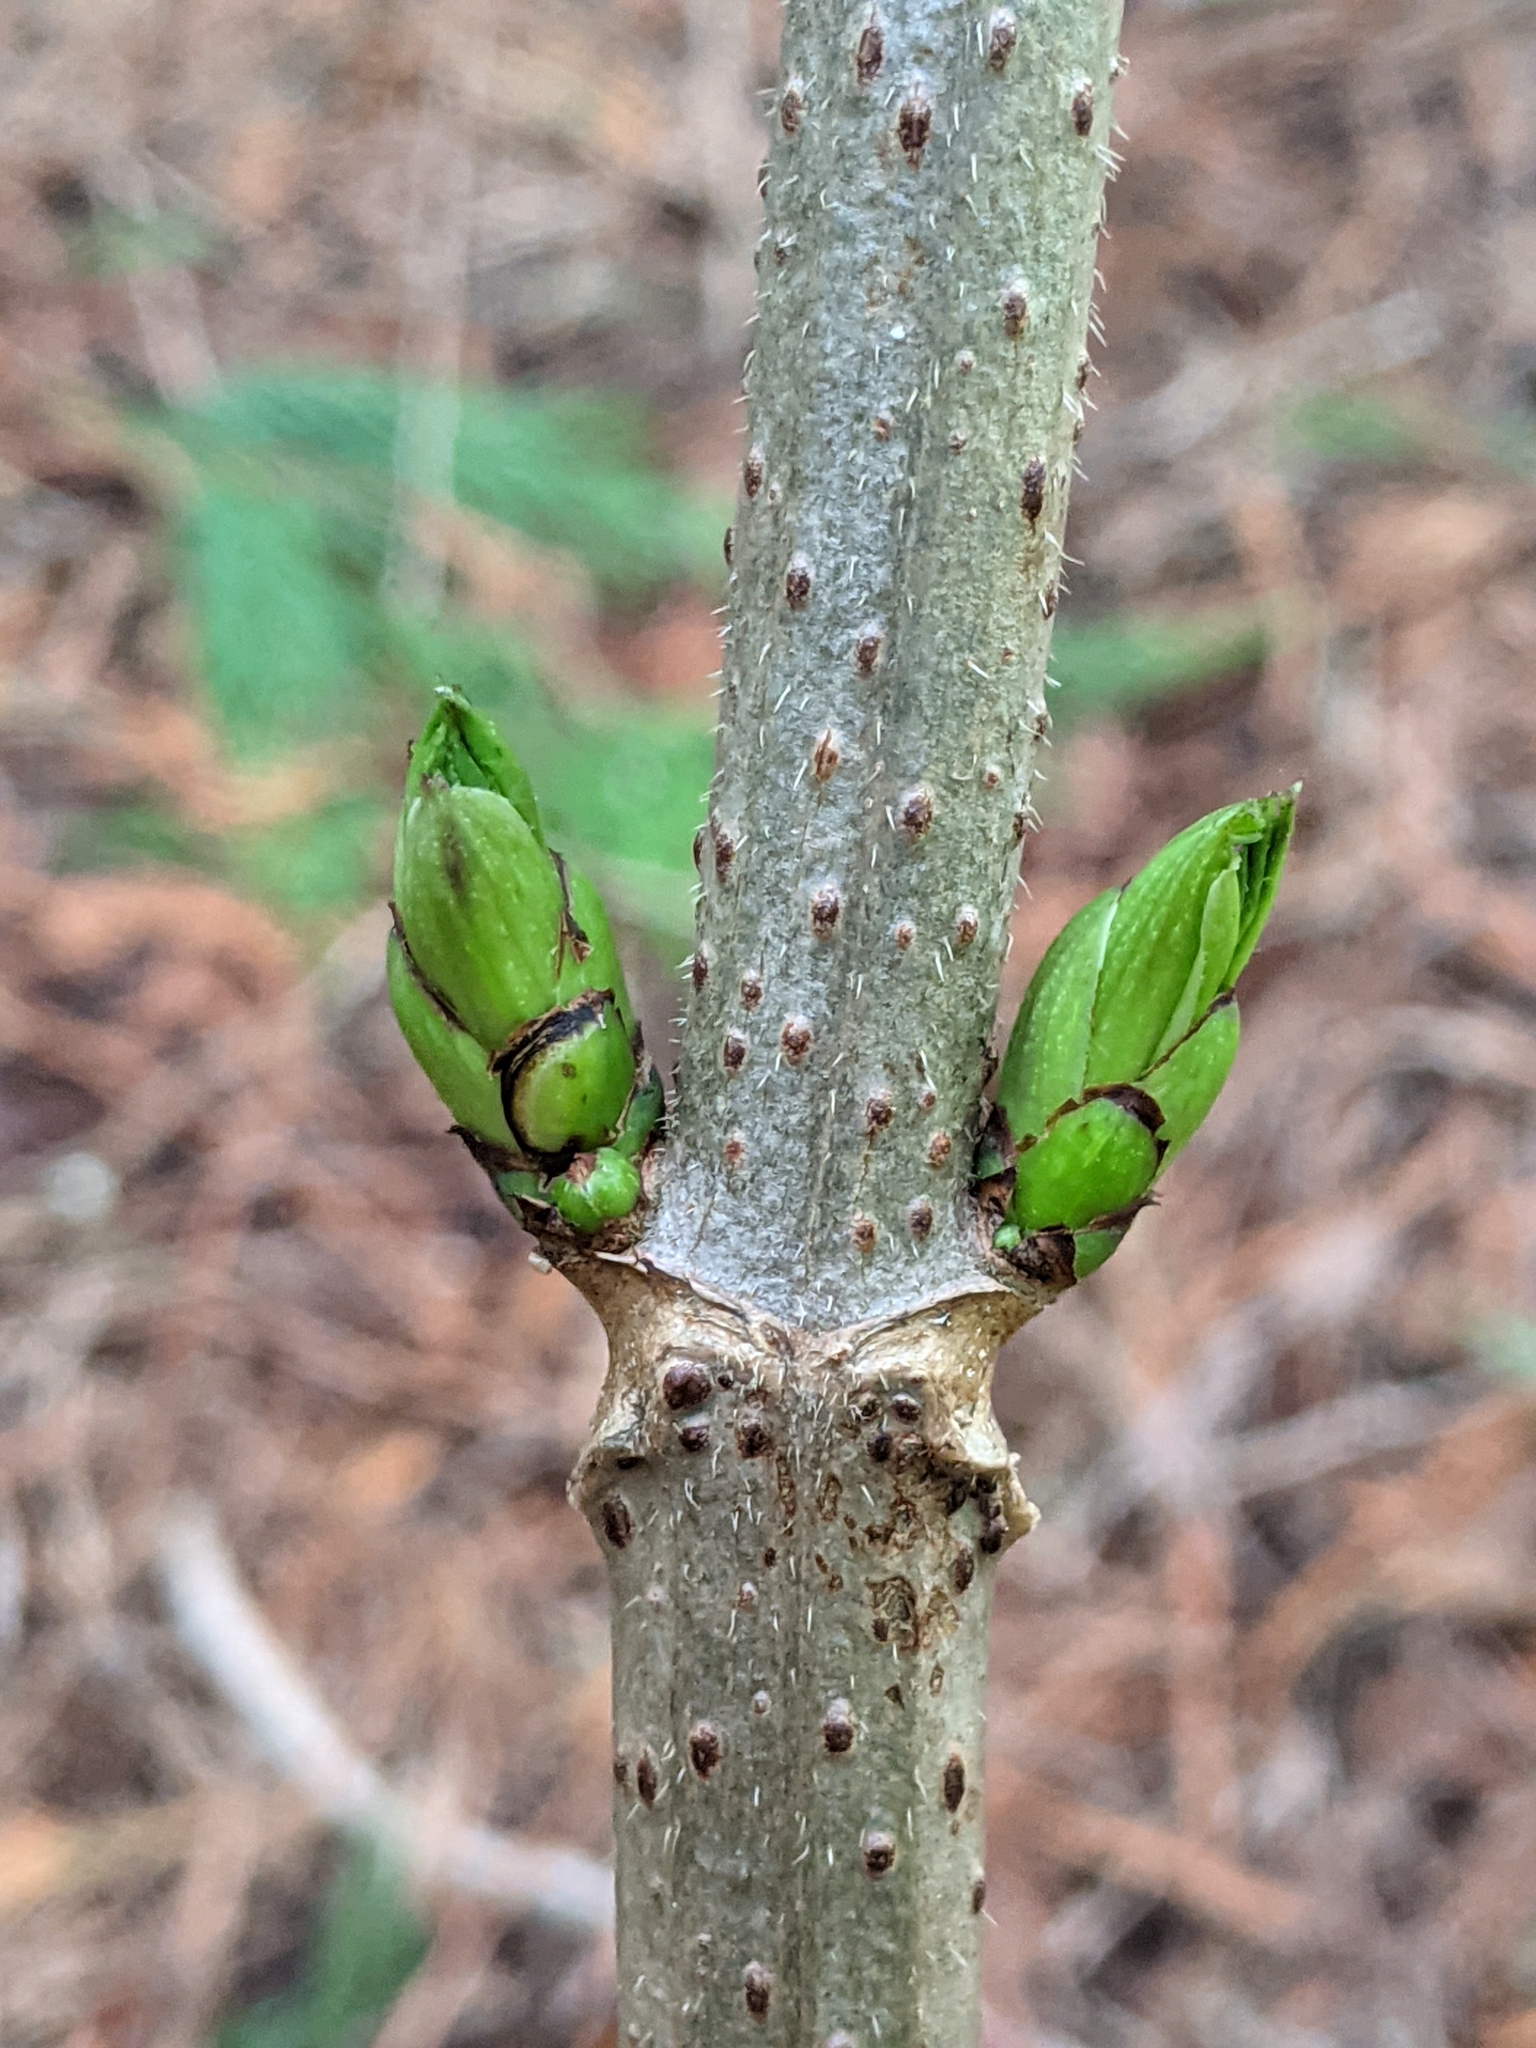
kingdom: Plantae
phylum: Tracheophyta
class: Magnoliopsida
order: Dipsacales
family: Viburnaceae
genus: Sambucus
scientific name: Sambucus racemosa
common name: Red-berried elder
